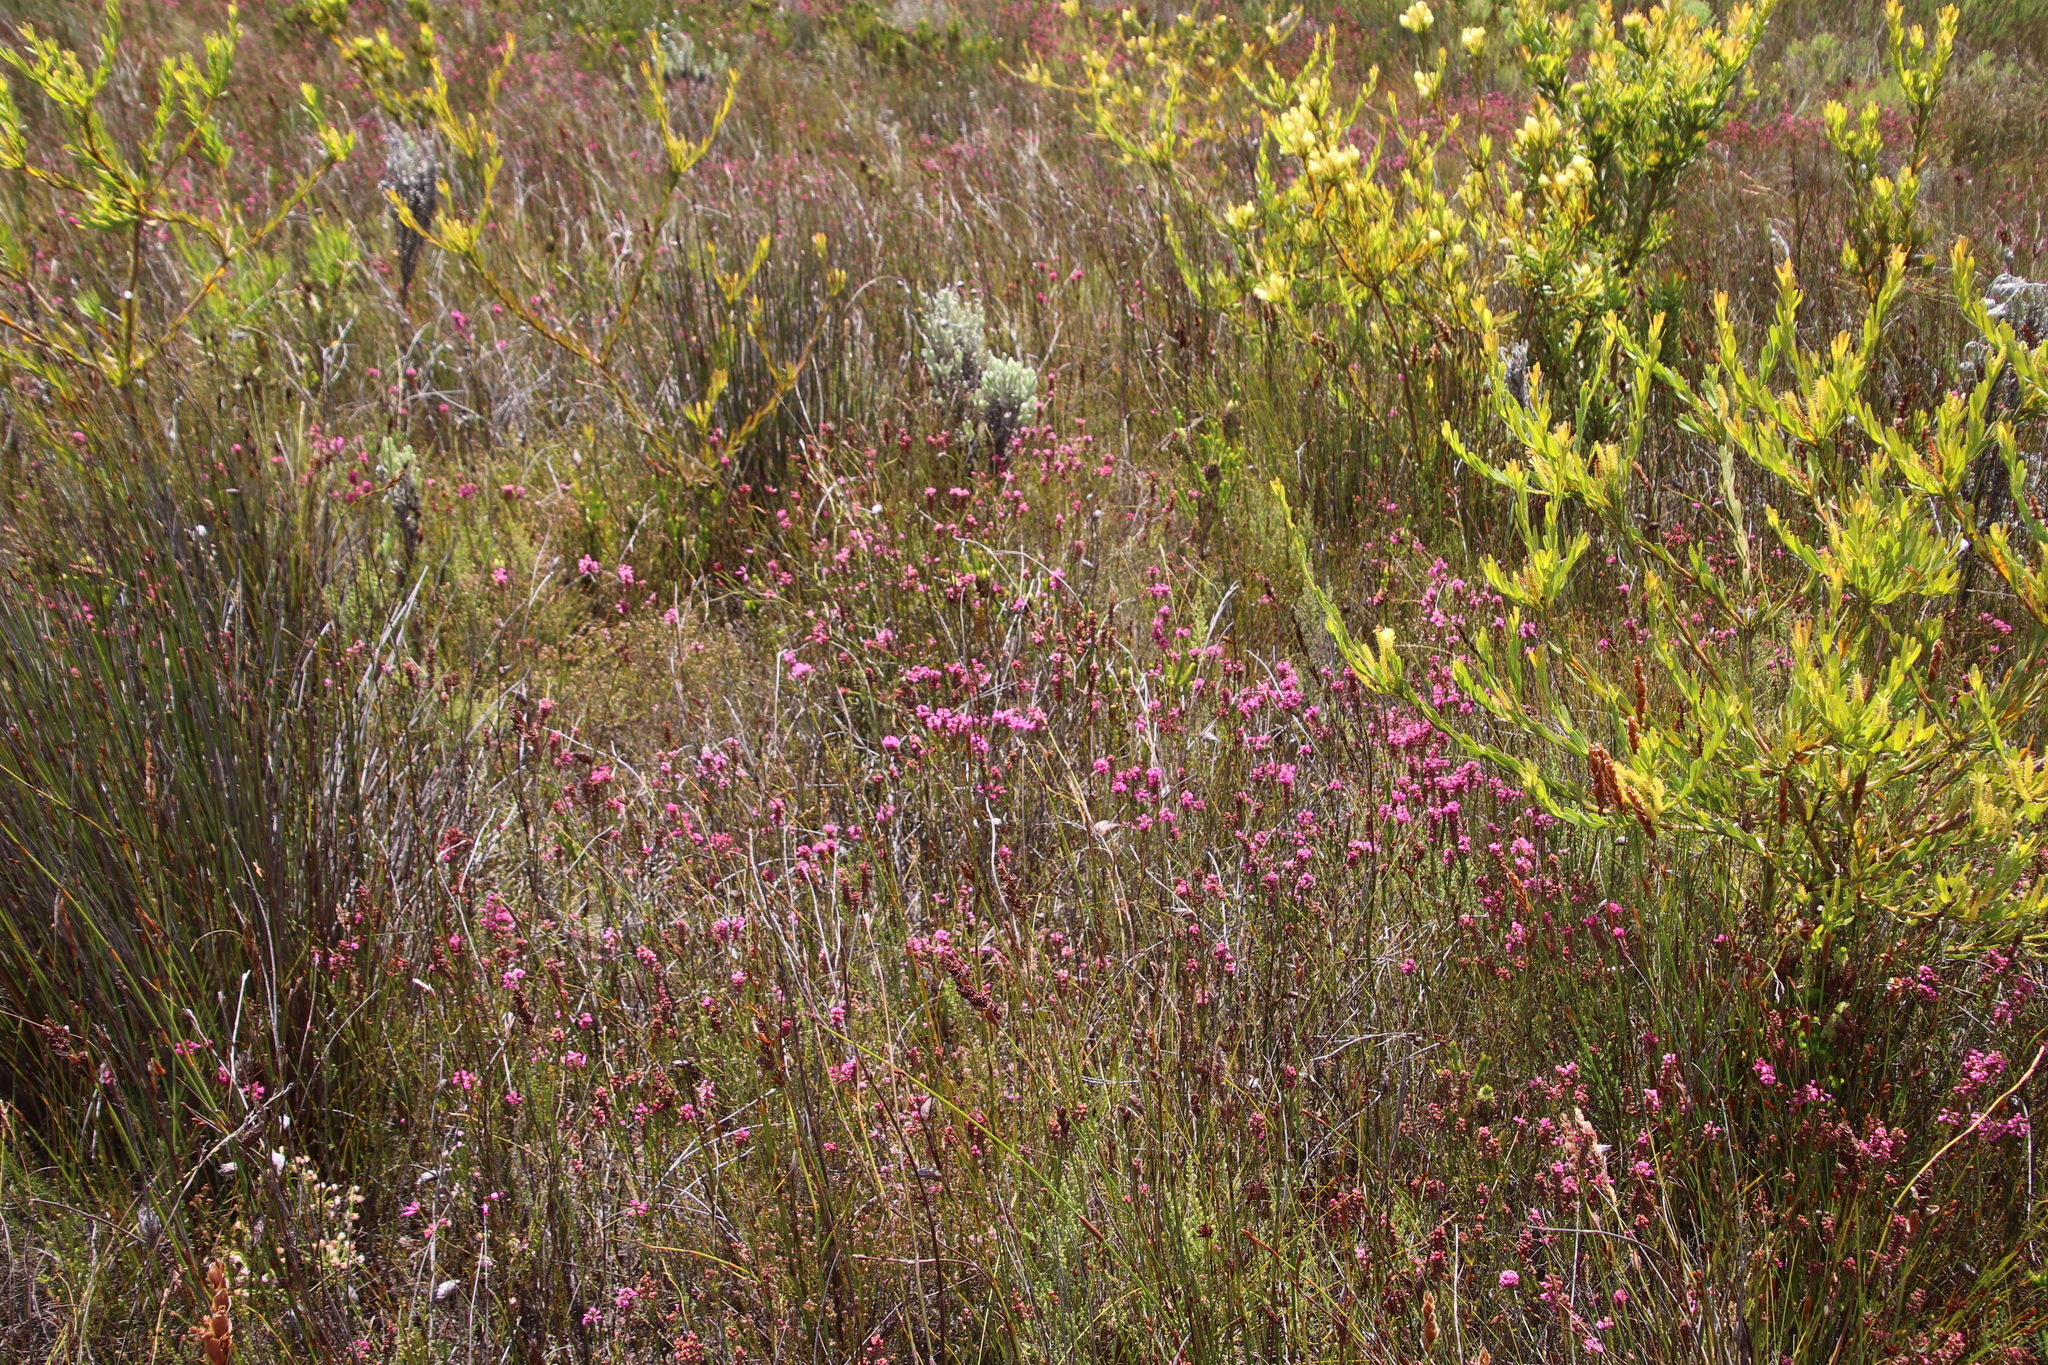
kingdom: Plantae
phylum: Tracheophyta
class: Magnoliopsida
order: Ericales
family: Ericaceae
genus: Erica
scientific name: Erica longiaristata
